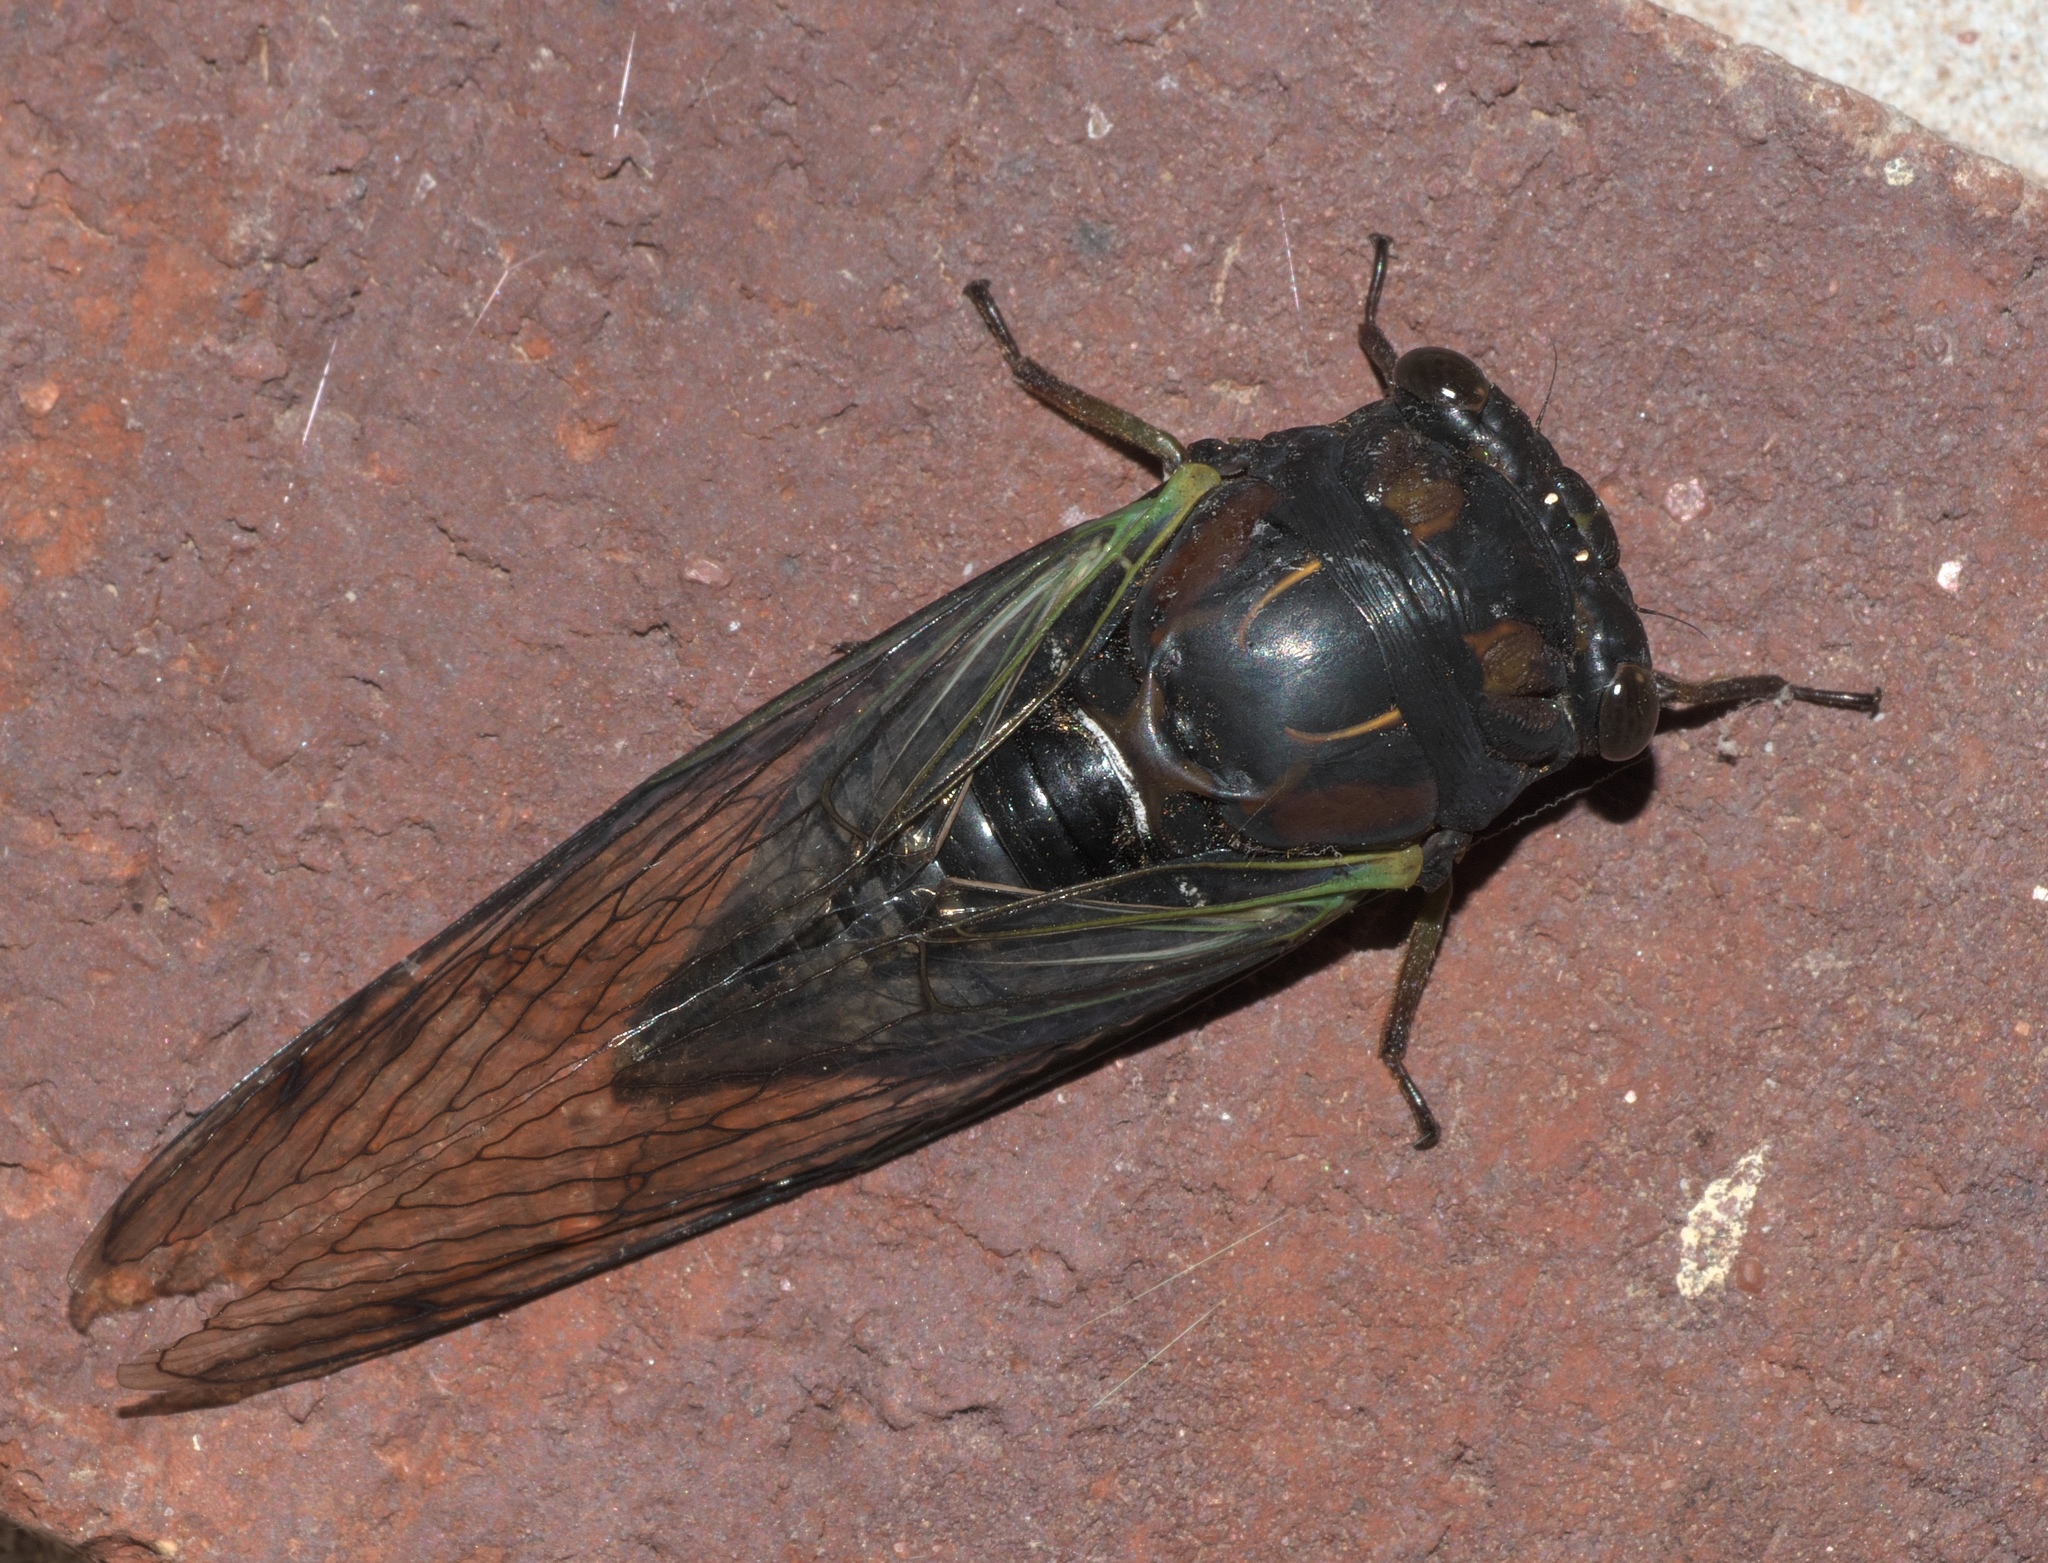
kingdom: Animalia
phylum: Arthropoda
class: Insecta
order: Hemiptera
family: Cicadidae
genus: Neotibicen
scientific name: Neotibicen lyricen
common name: Lyric cicada
